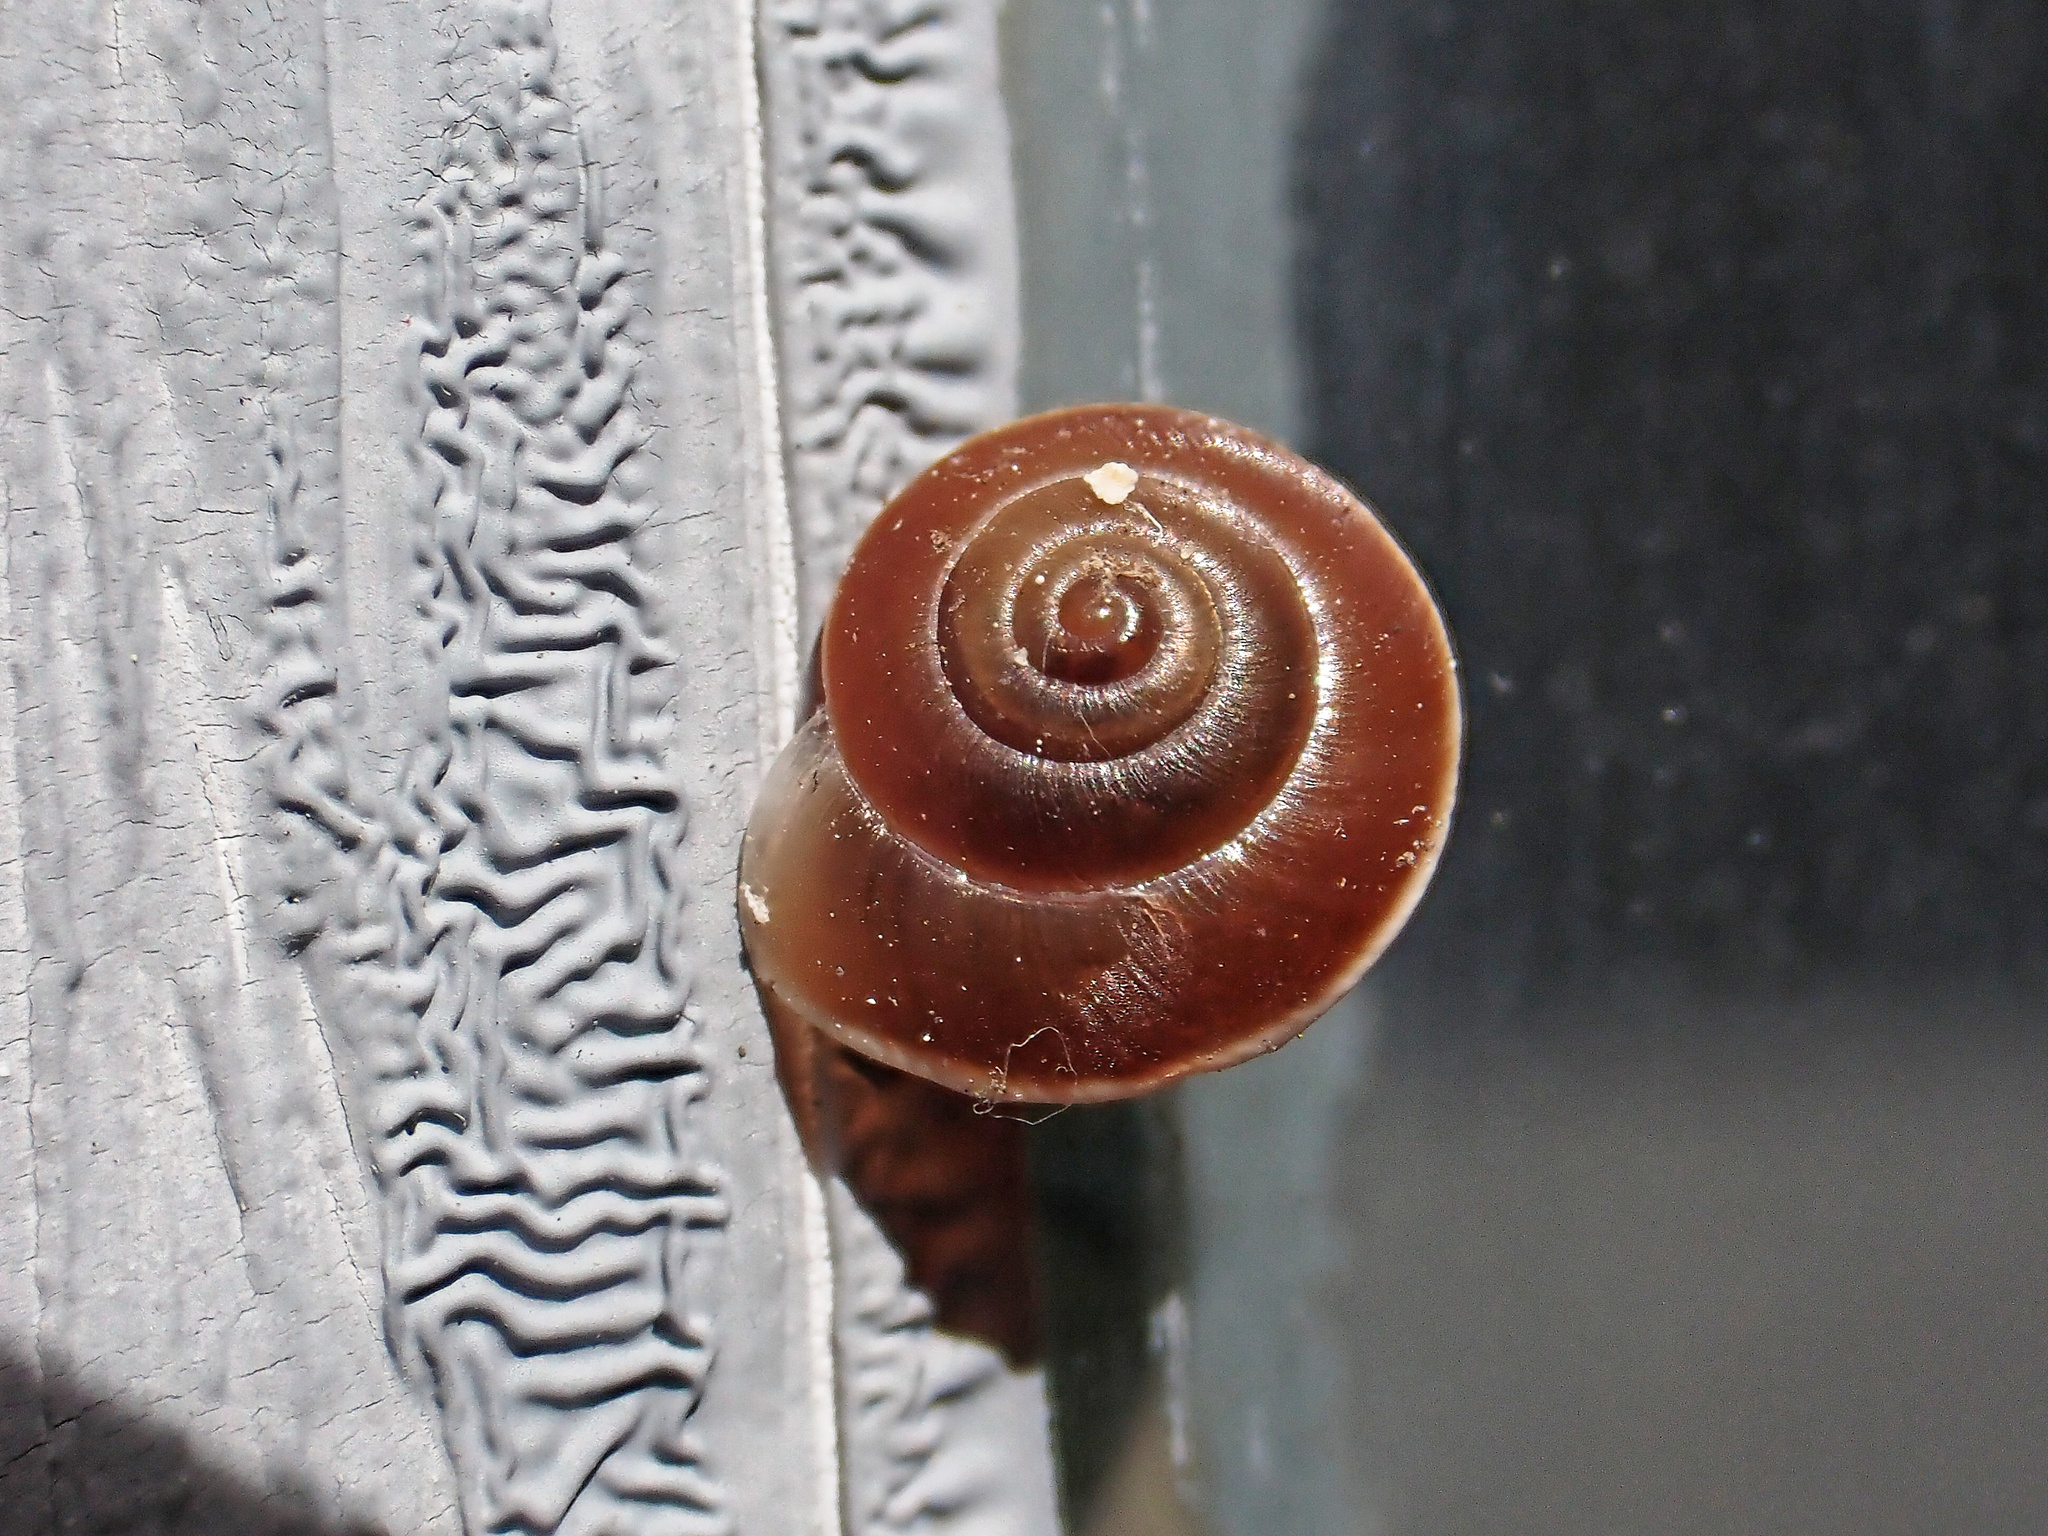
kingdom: Animalia
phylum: Mollusca
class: Gastropoda
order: Stylommatophora
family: Hygromiidae
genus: Hygromia
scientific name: Hygromia cinctella
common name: Girdled snail
